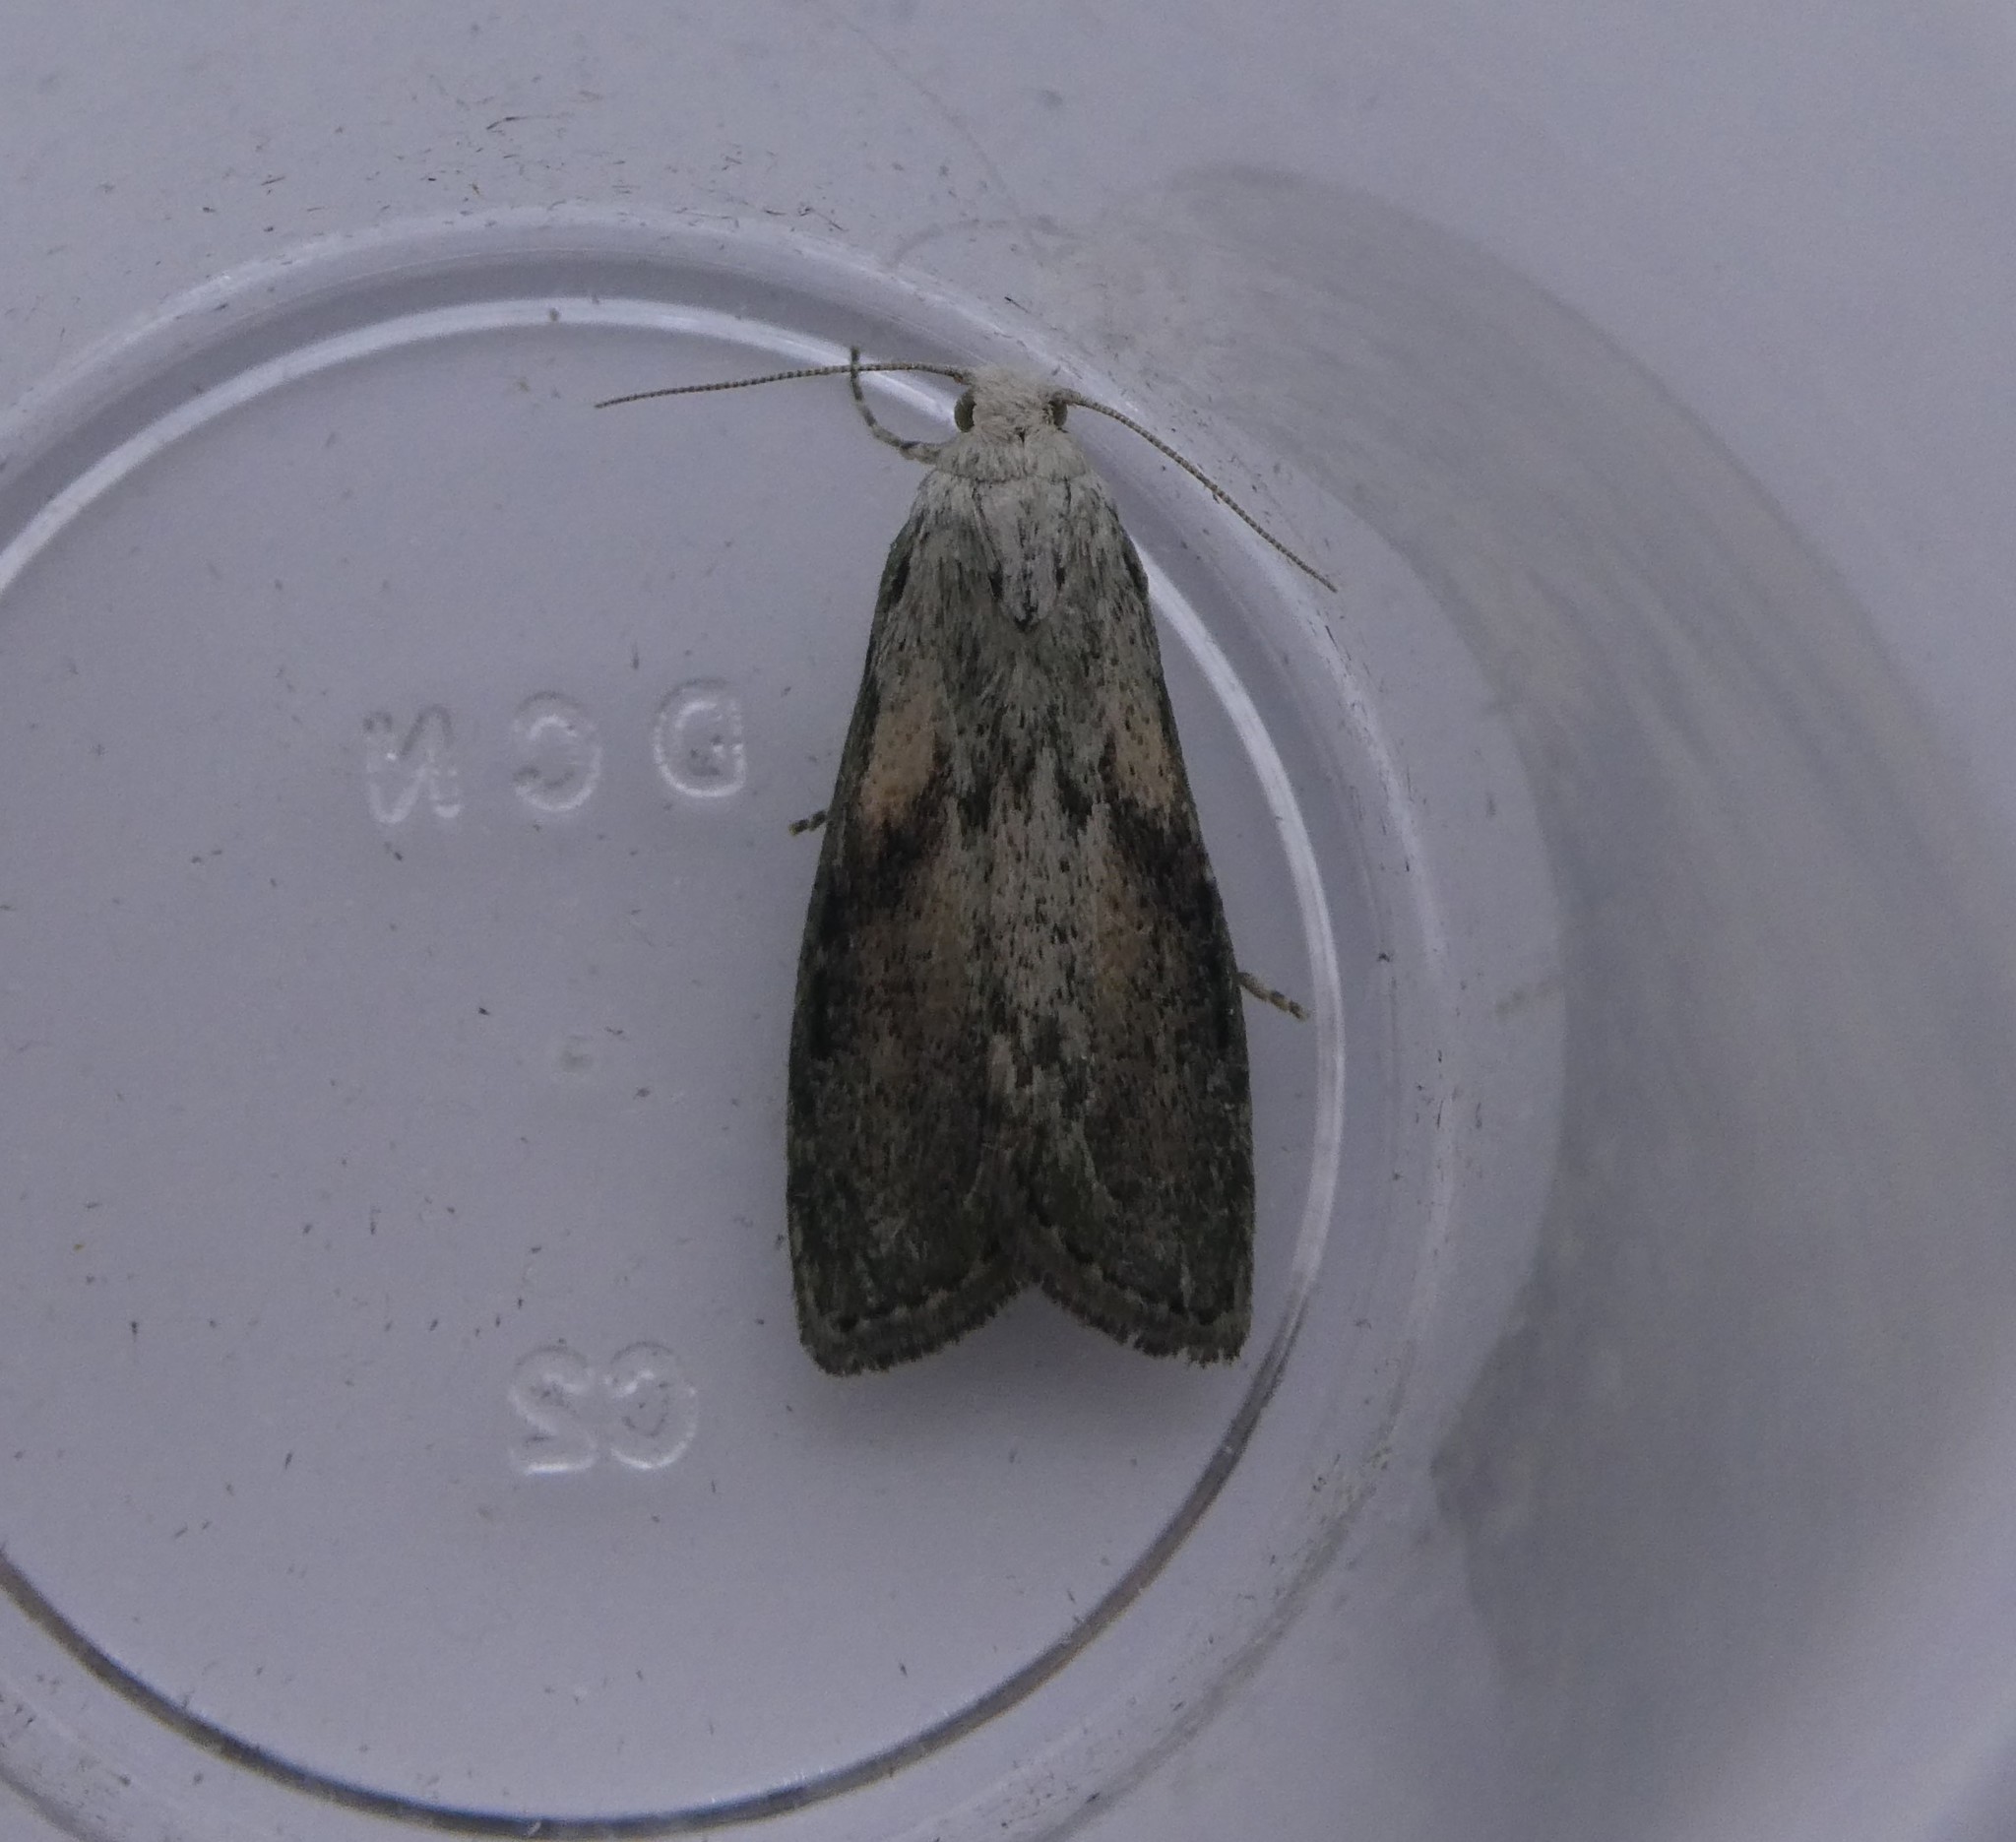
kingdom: Animalia
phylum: Arthropoda
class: Insecta
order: Lepidoptera
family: Pyralidae
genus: Aphomia
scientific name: Aphomia sociella
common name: Bee moth
